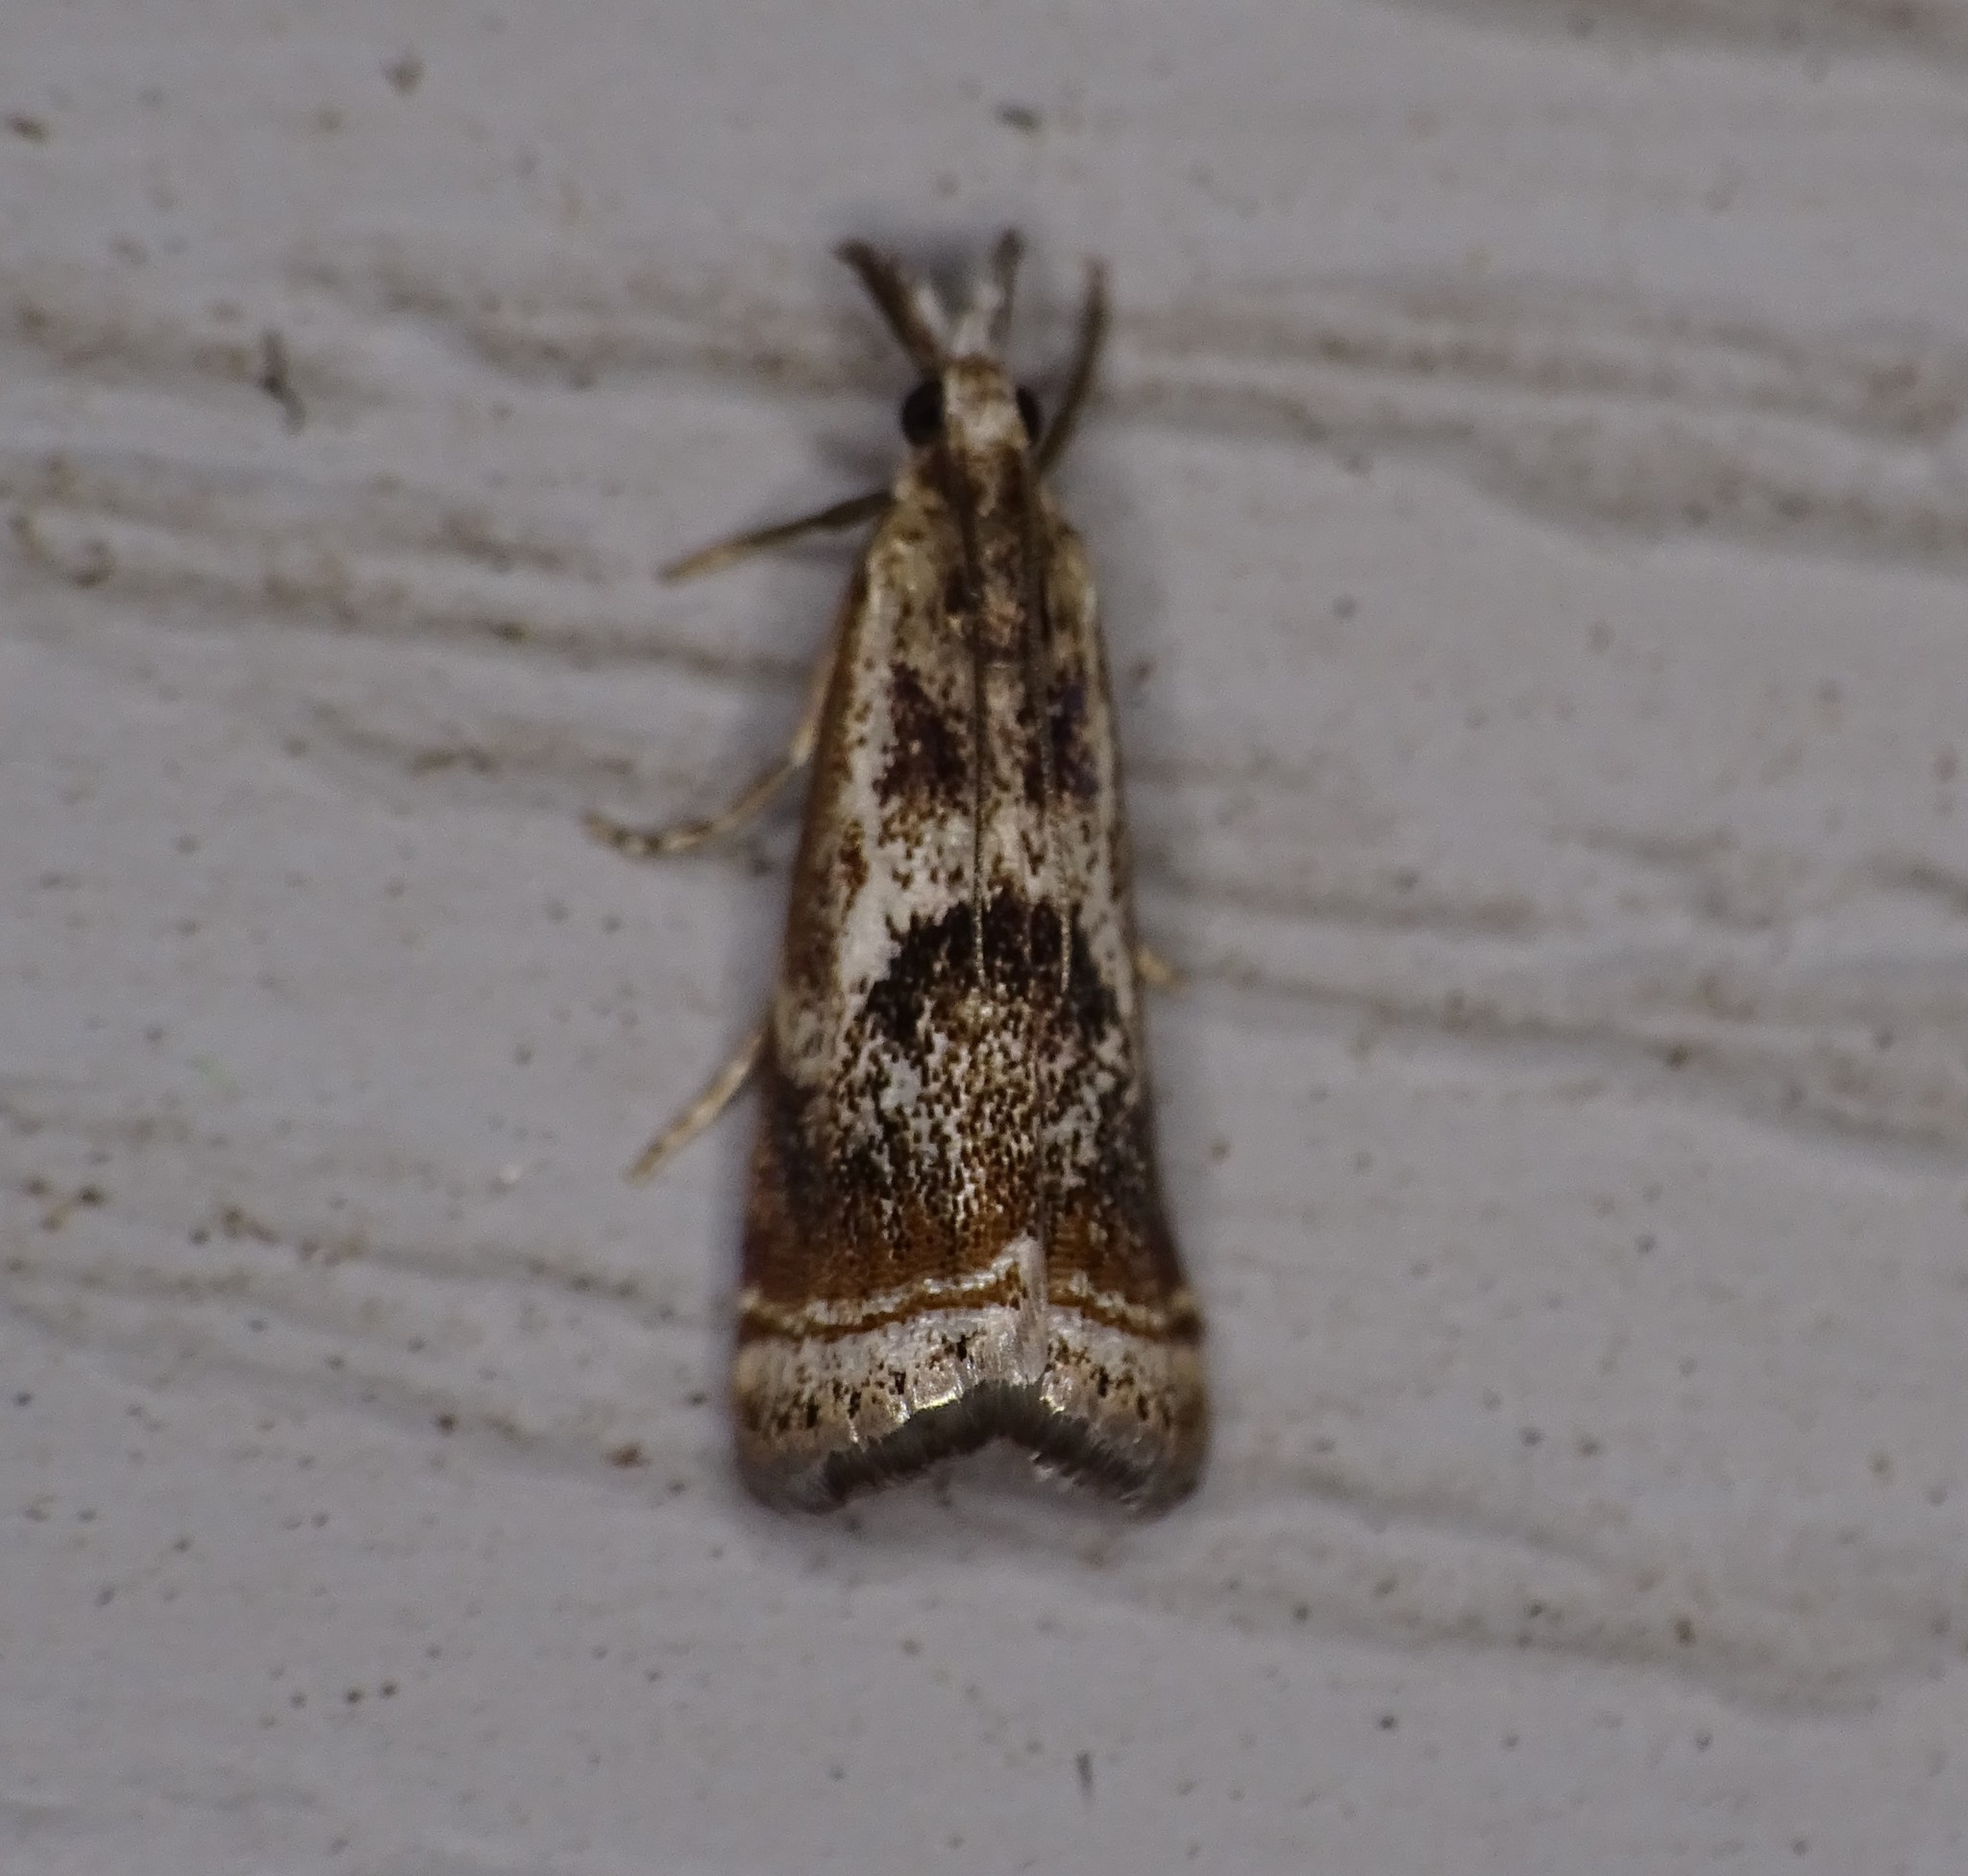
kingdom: Animalia
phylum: Arthropoda
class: Insecta
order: Lepidoptera
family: Crambidae
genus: Microcrambus
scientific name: Microcrambus elegans
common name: Elegant grass-veneer
